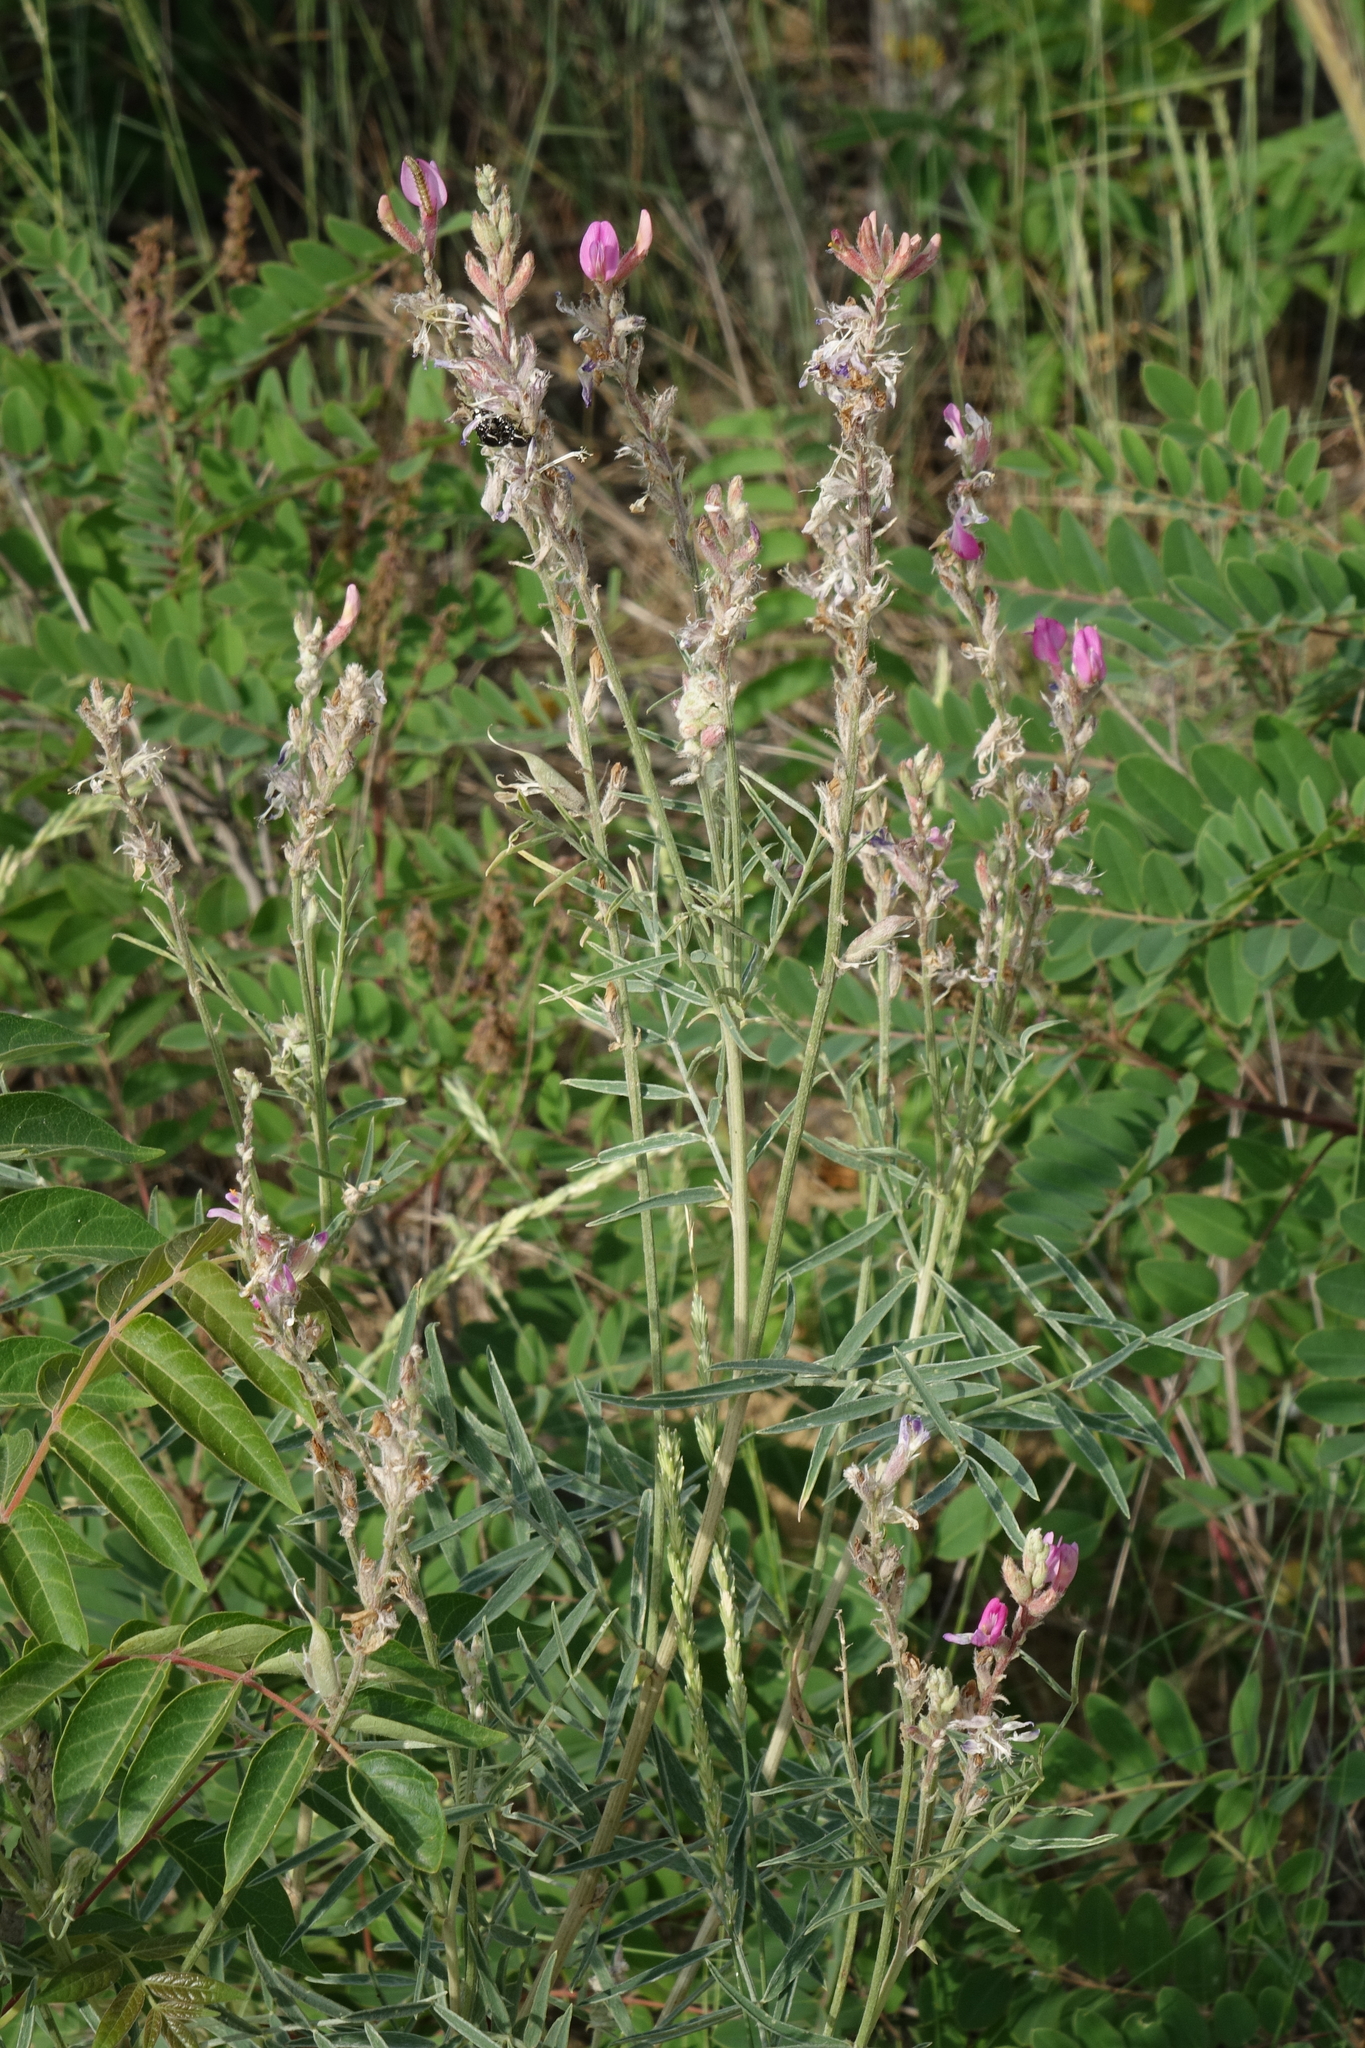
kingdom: Plantae
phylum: Tracheophyta
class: Magnoliopsida
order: Fabales
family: Fabaceae
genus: Astragalus
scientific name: Astragalus brachylobus
